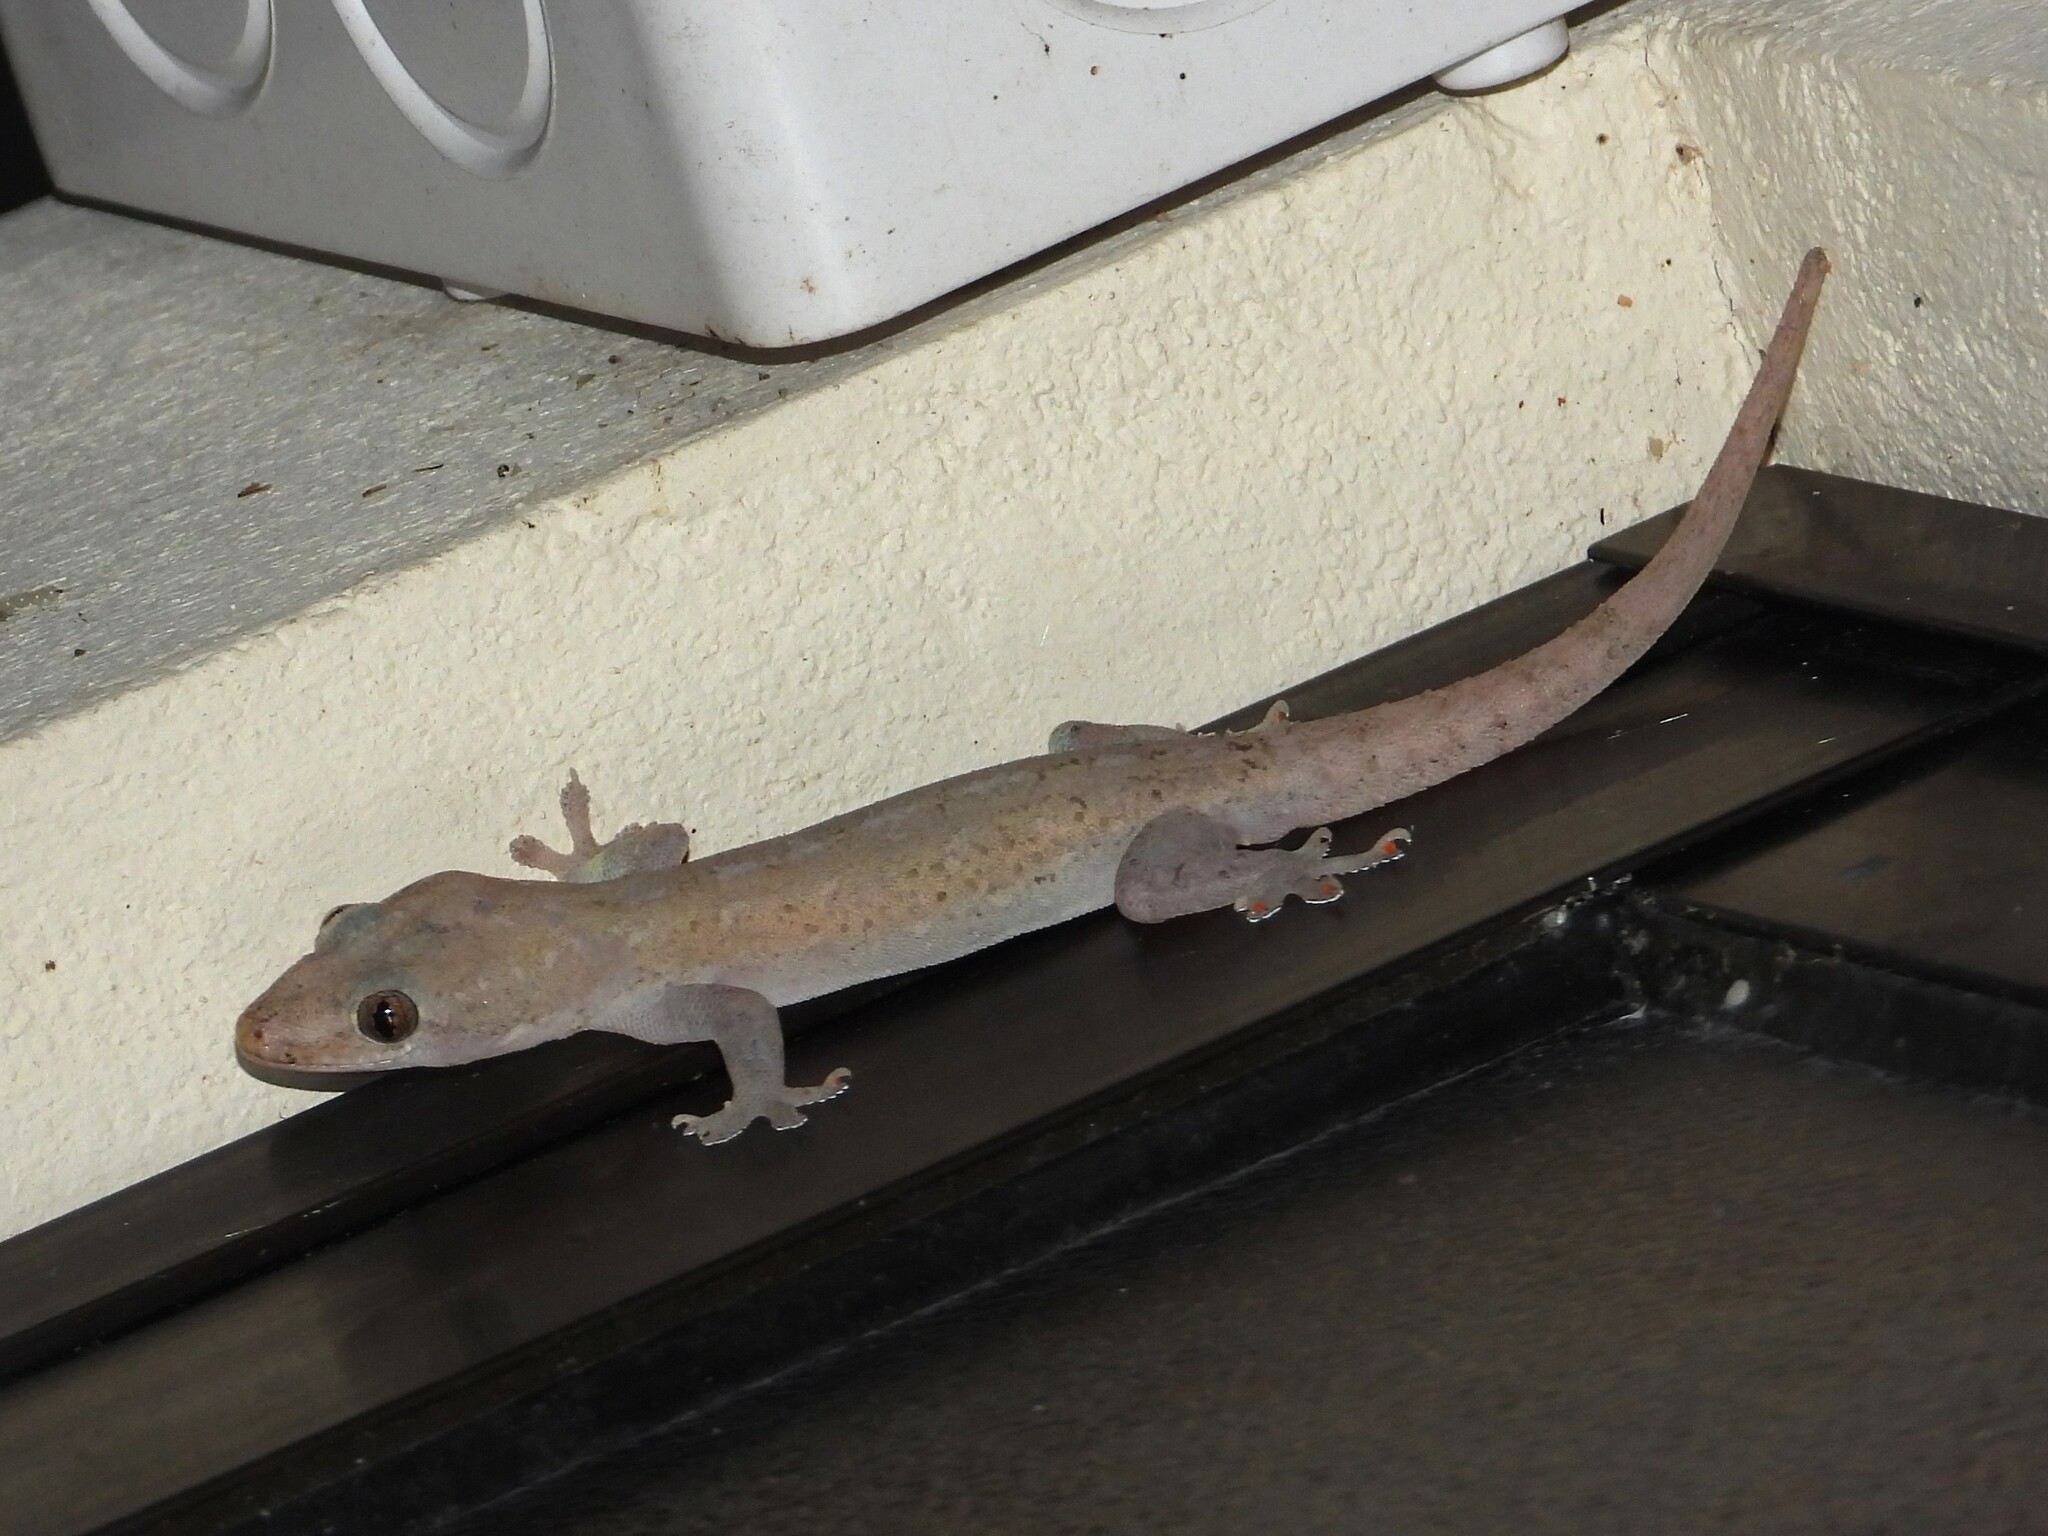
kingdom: Animalia
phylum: Chordata
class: Squamata
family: Gekkonidae
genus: Hemidactylus
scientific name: Hemidactylus frenatus
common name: Common house gecko
